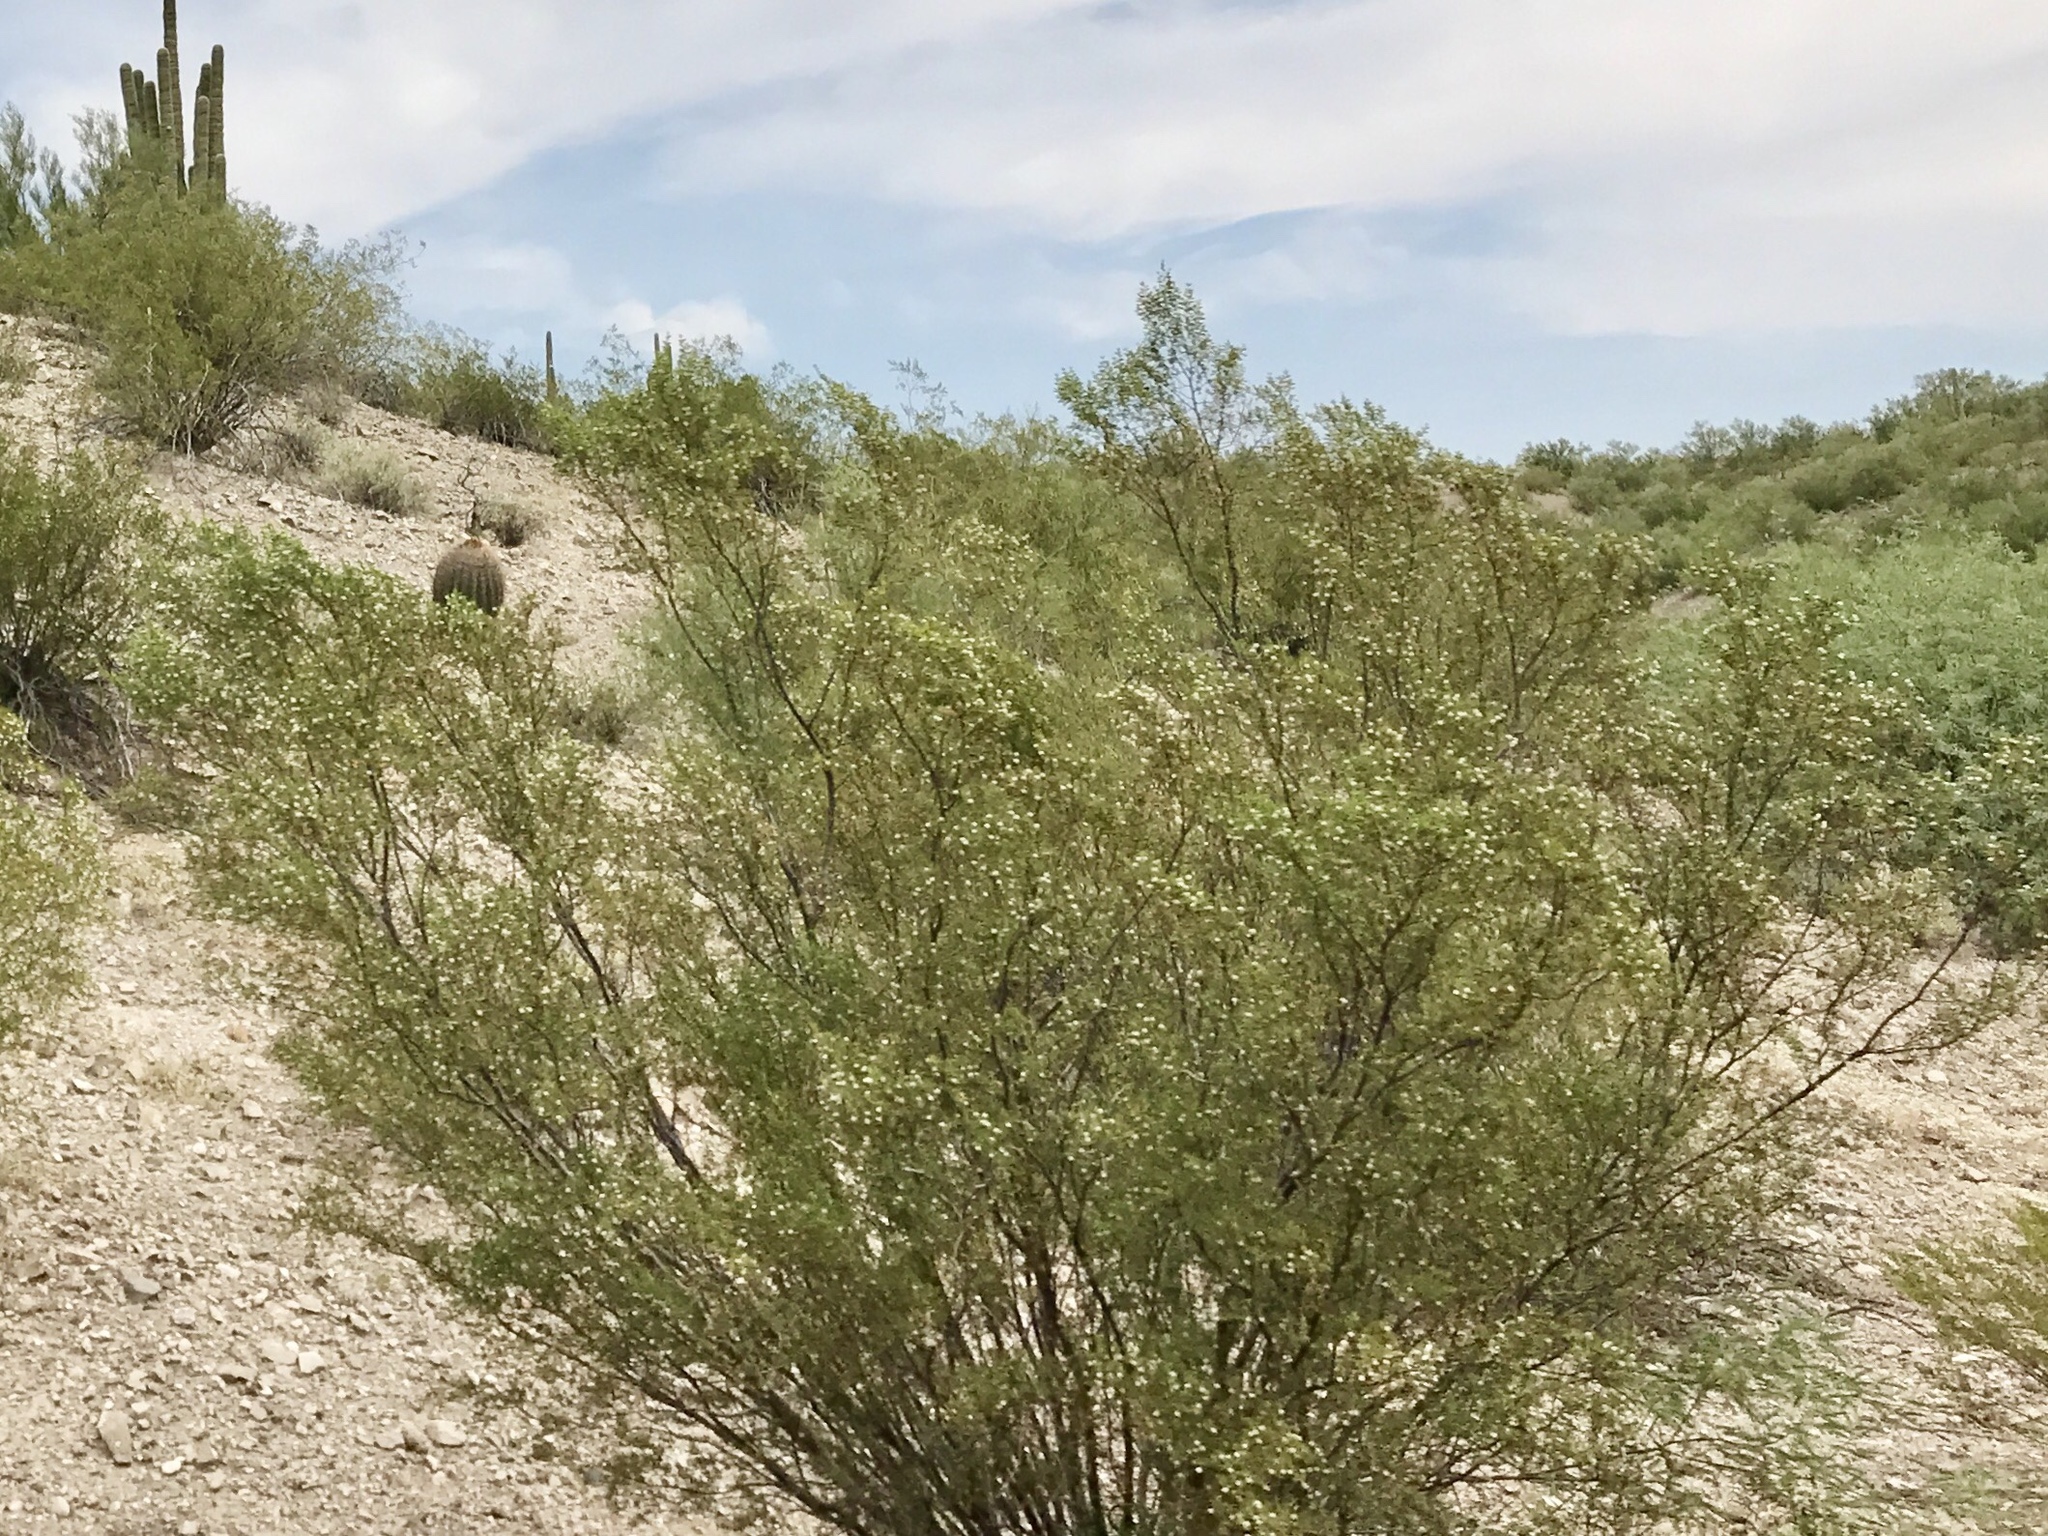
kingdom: Plantae
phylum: Tracheophyta
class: Magnoliopsida
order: Zygophyllales
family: Zygophyllaceae
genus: Larrea
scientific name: Larrea tridentata
